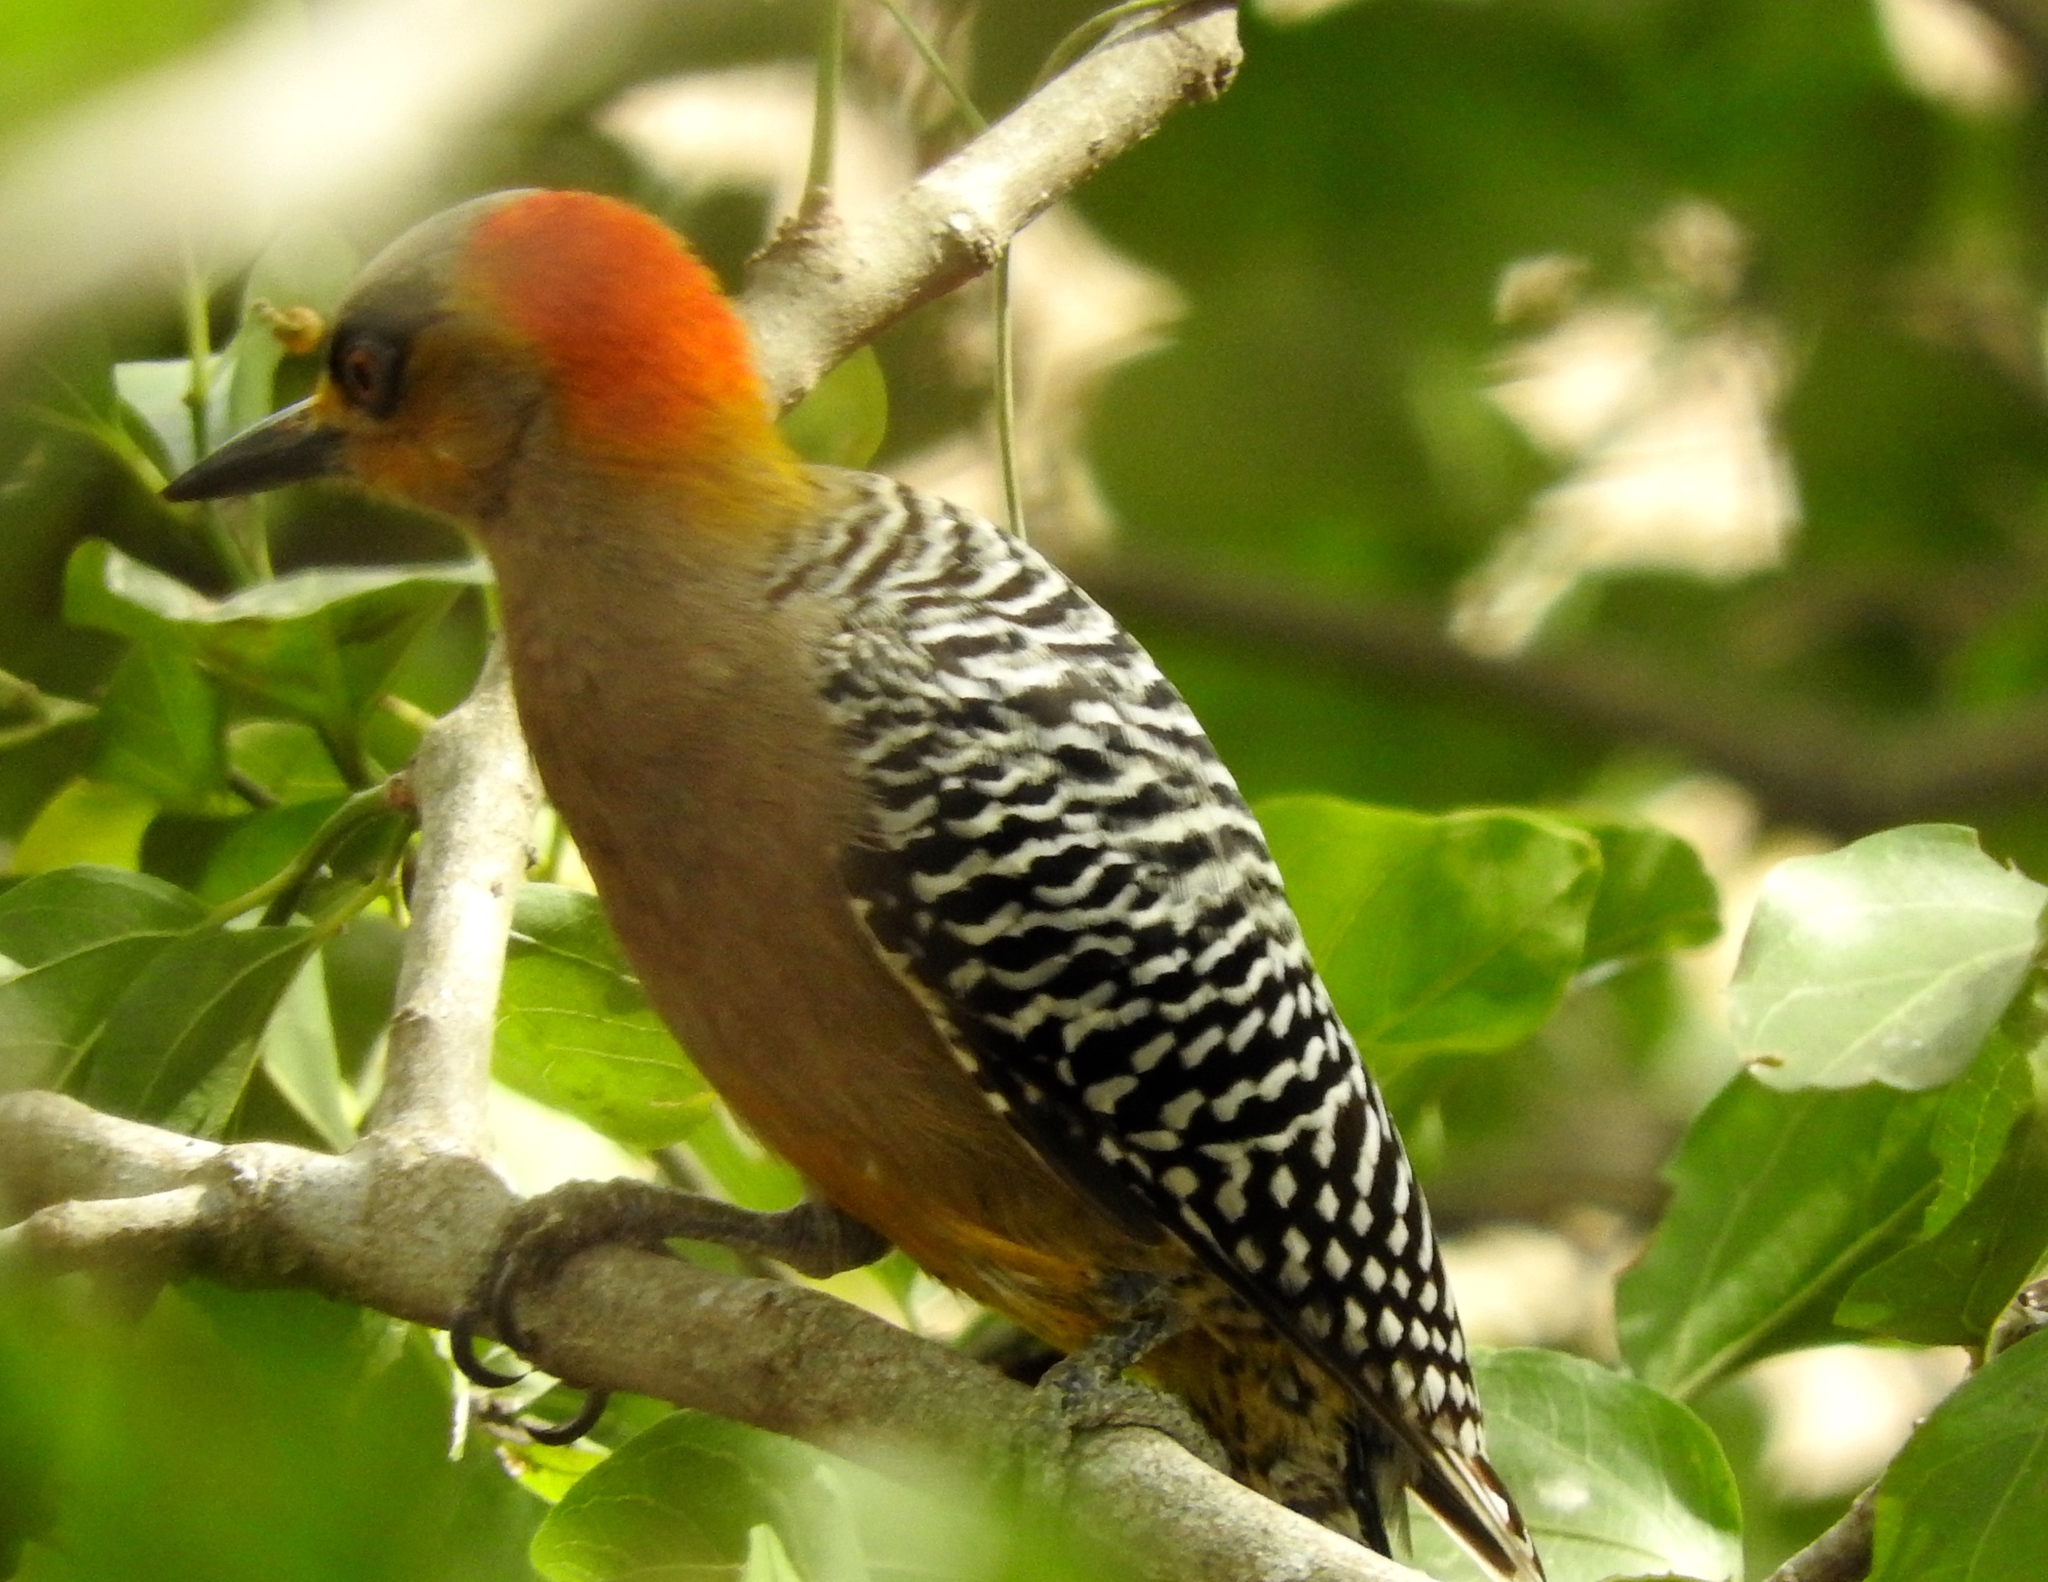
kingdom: Animalia
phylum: Chordata
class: Aves
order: Piciformes
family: Picidae
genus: Melanerpes
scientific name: Melanerpes chrysogenys
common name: Golden-cheeked woodpecker
